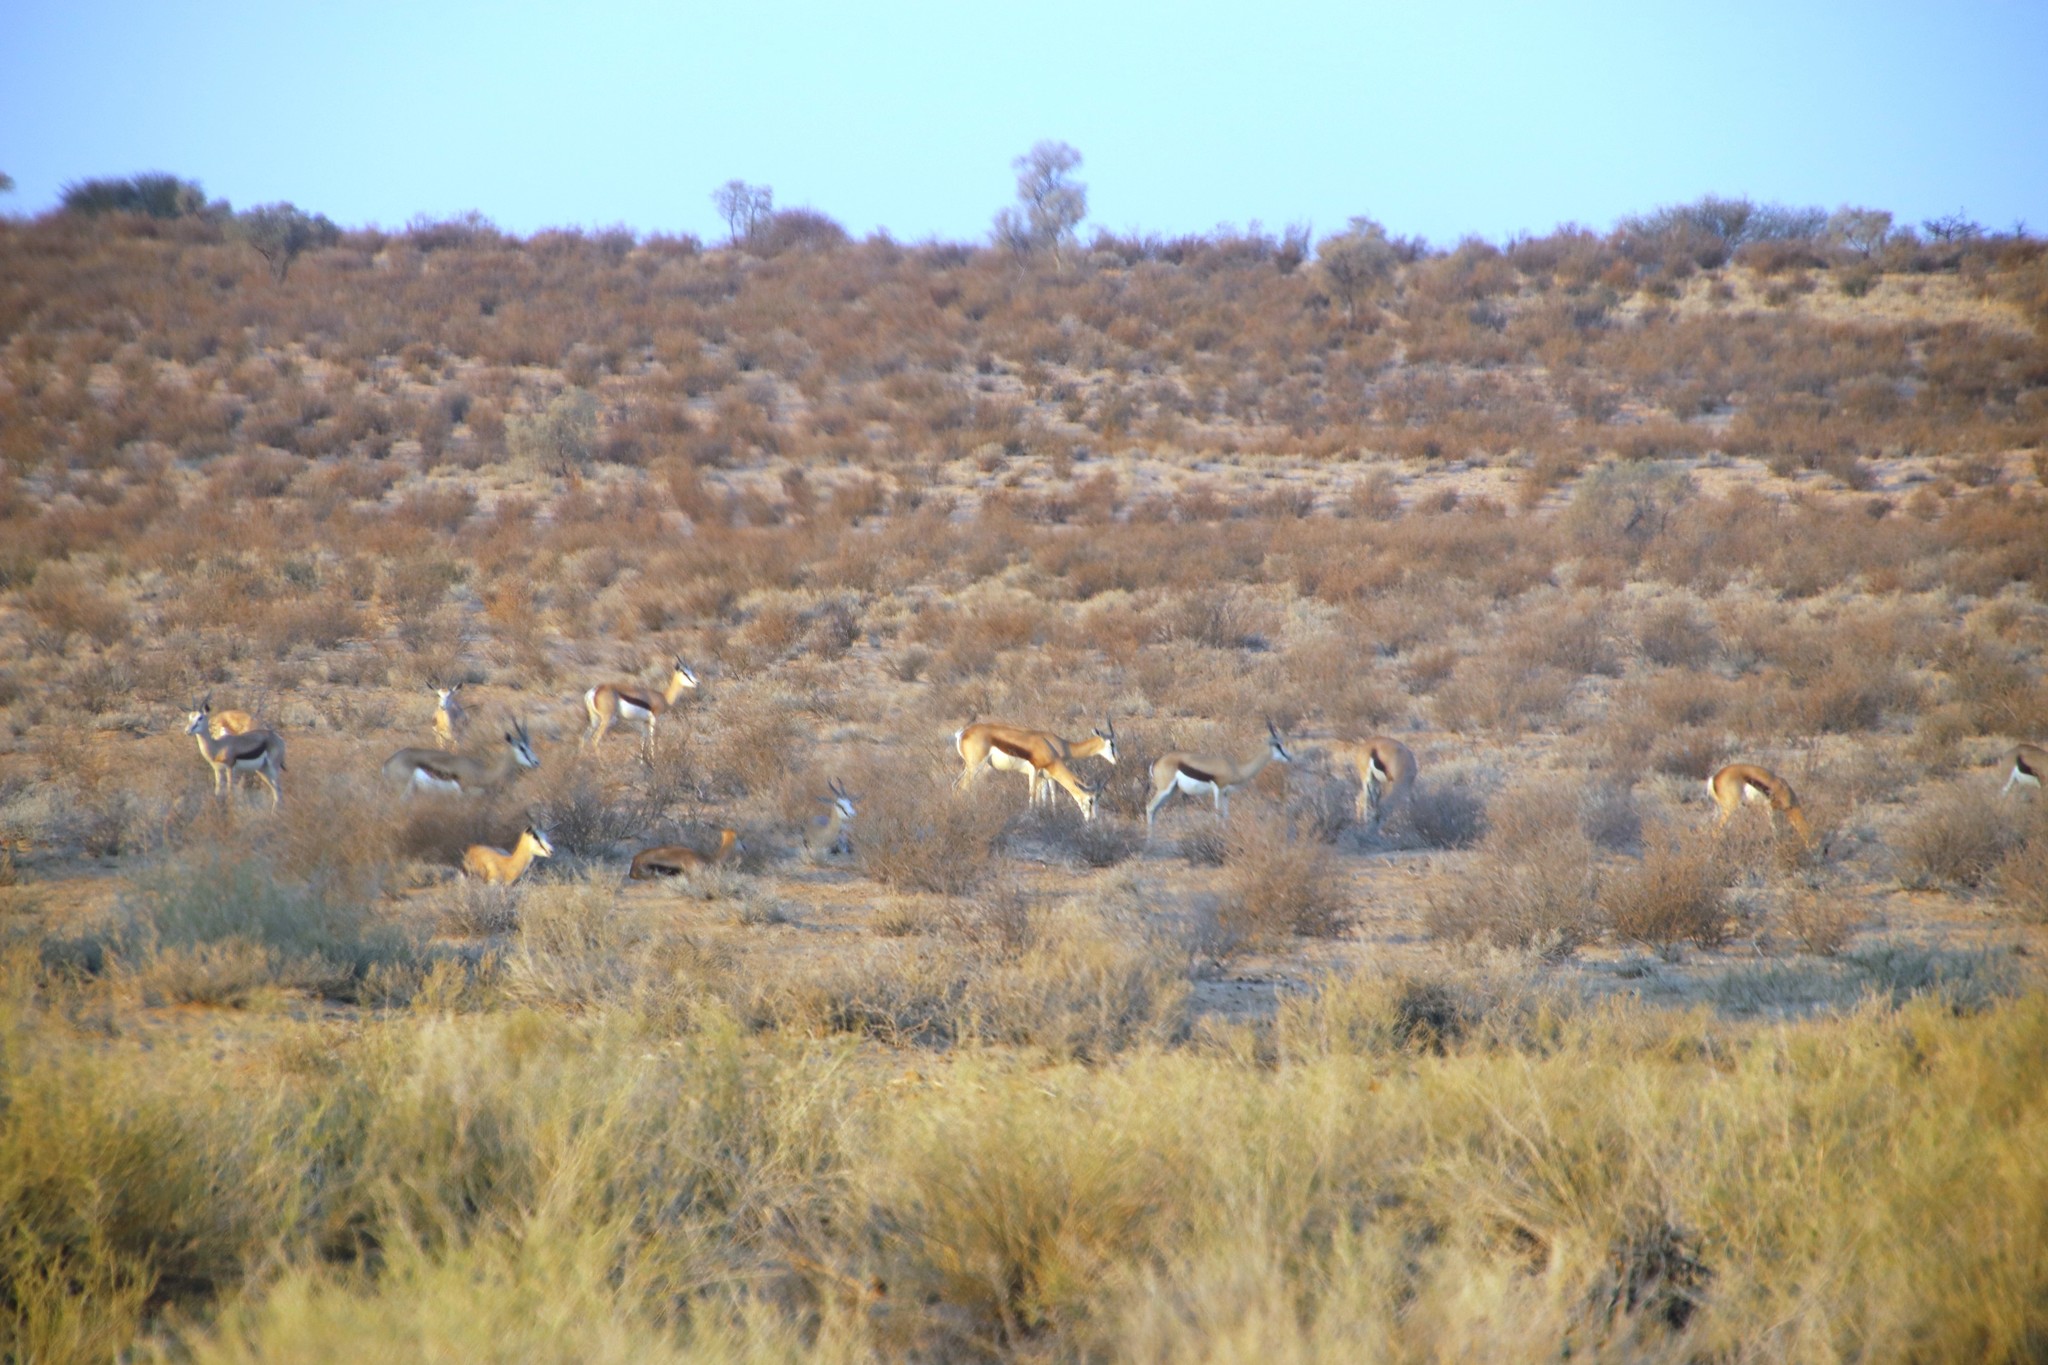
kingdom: Animalia
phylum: Chordata
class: Mammalia
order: Artiodactyla
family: Bovidae
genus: Antidorcas
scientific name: Antidorcas marsupialis
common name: Springbok
